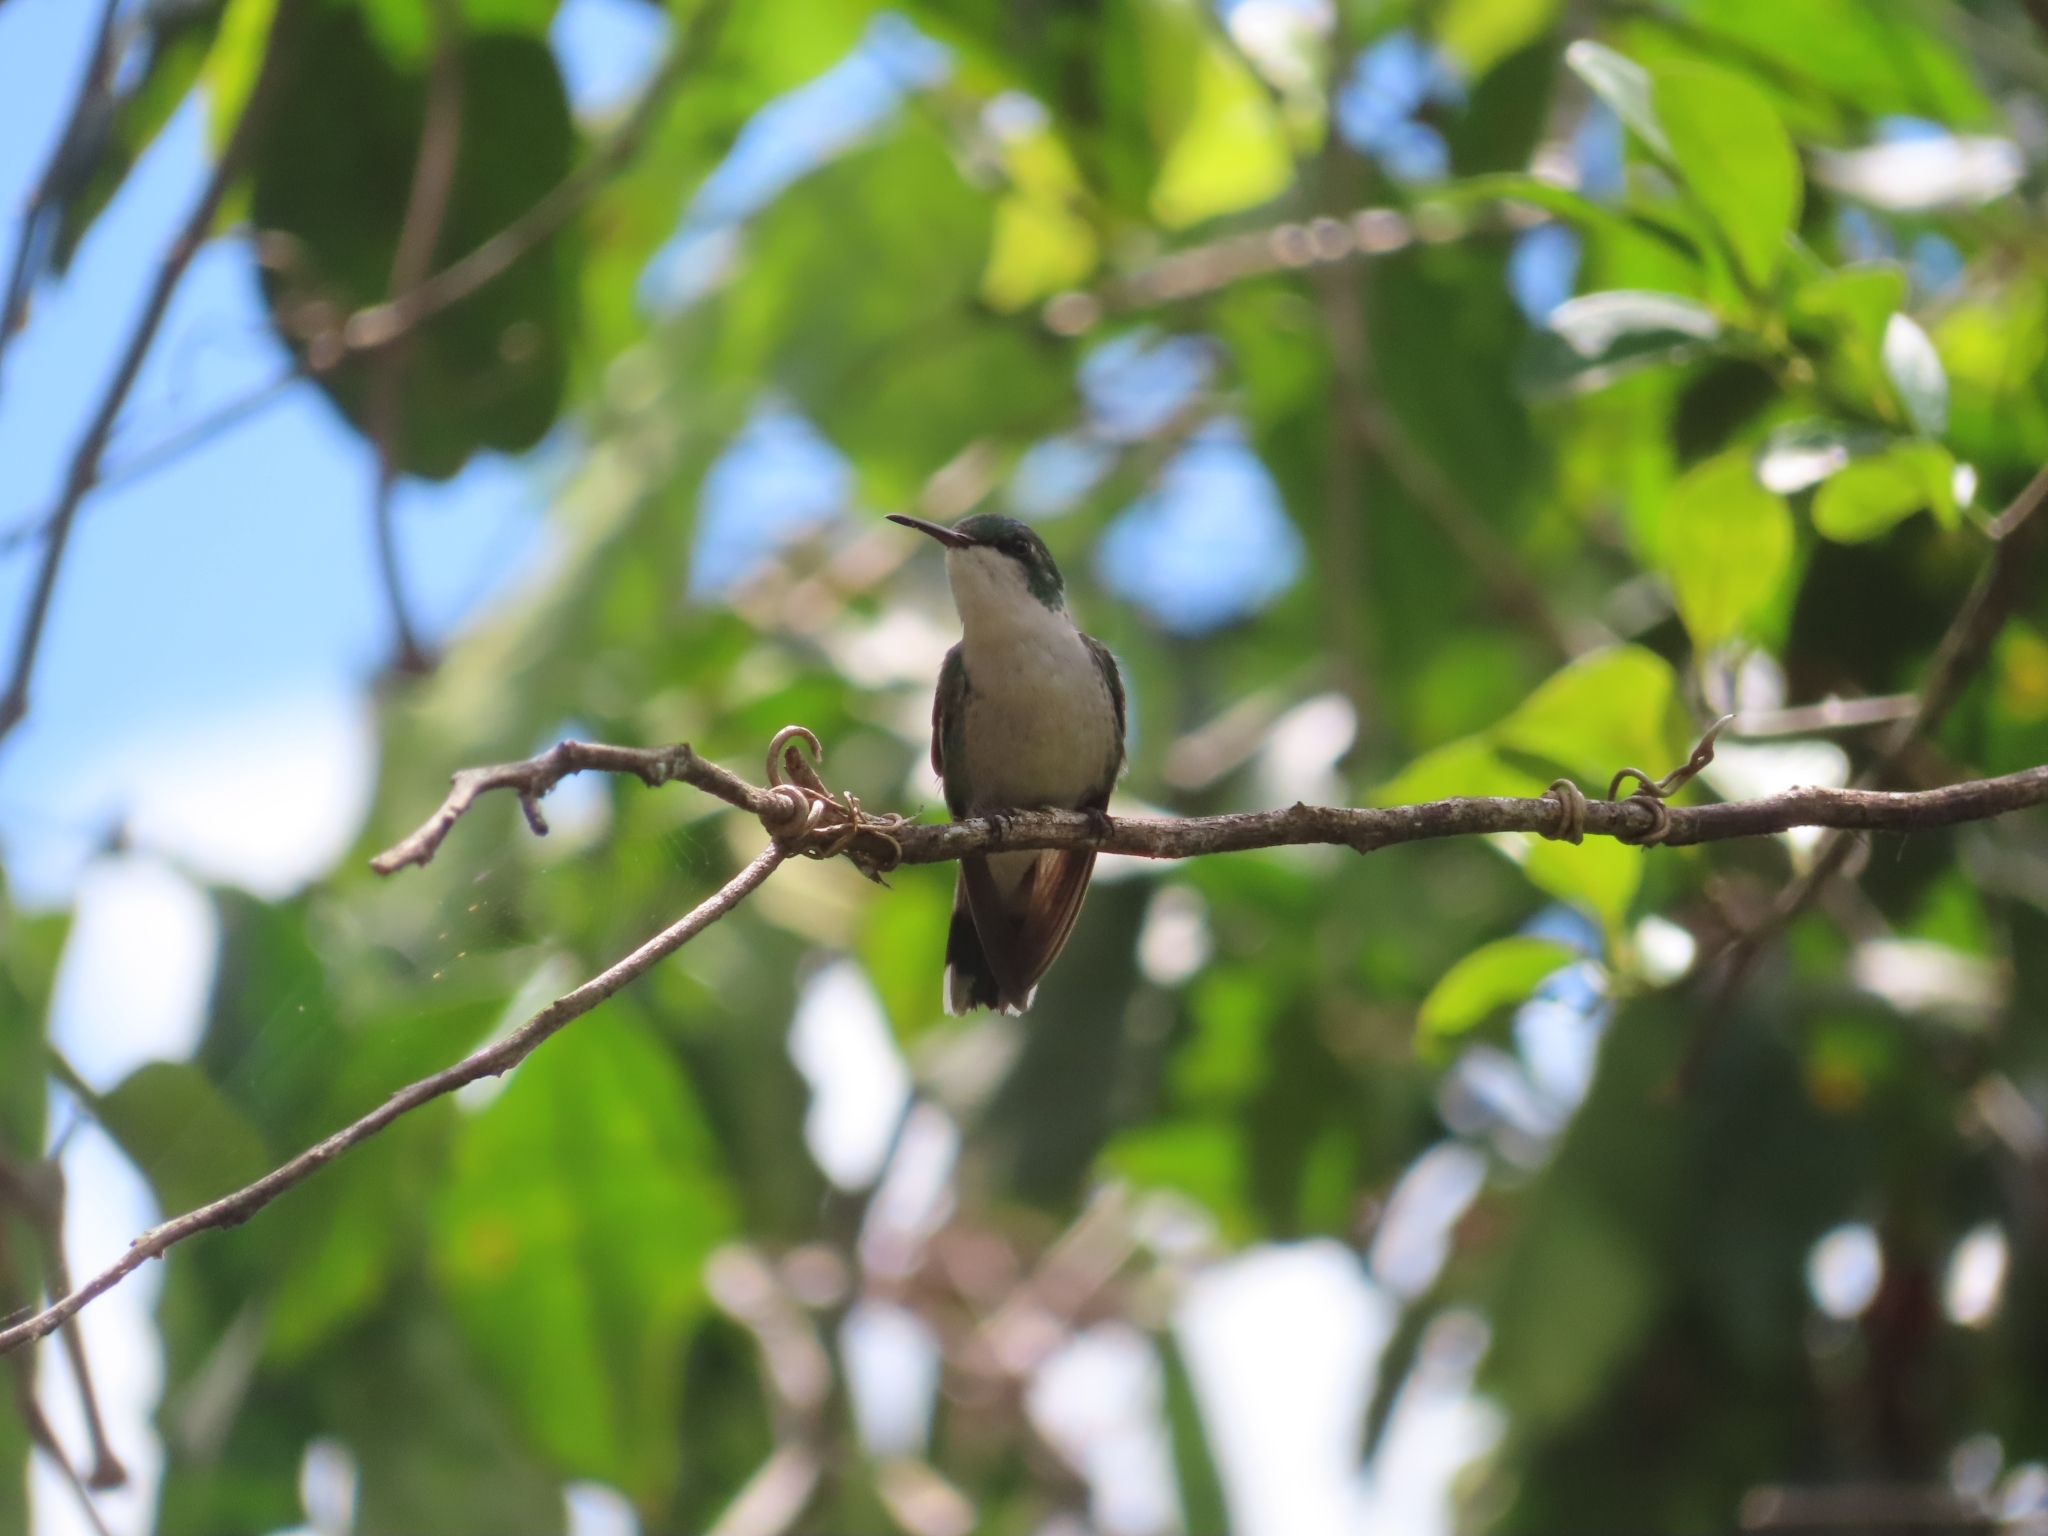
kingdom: Animalia
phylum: Chordata
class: Aves
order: Apodiformes
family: Trochilidae
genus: Riccordia
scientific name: Riccordia maugaeus
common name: Puerto rican emerald
